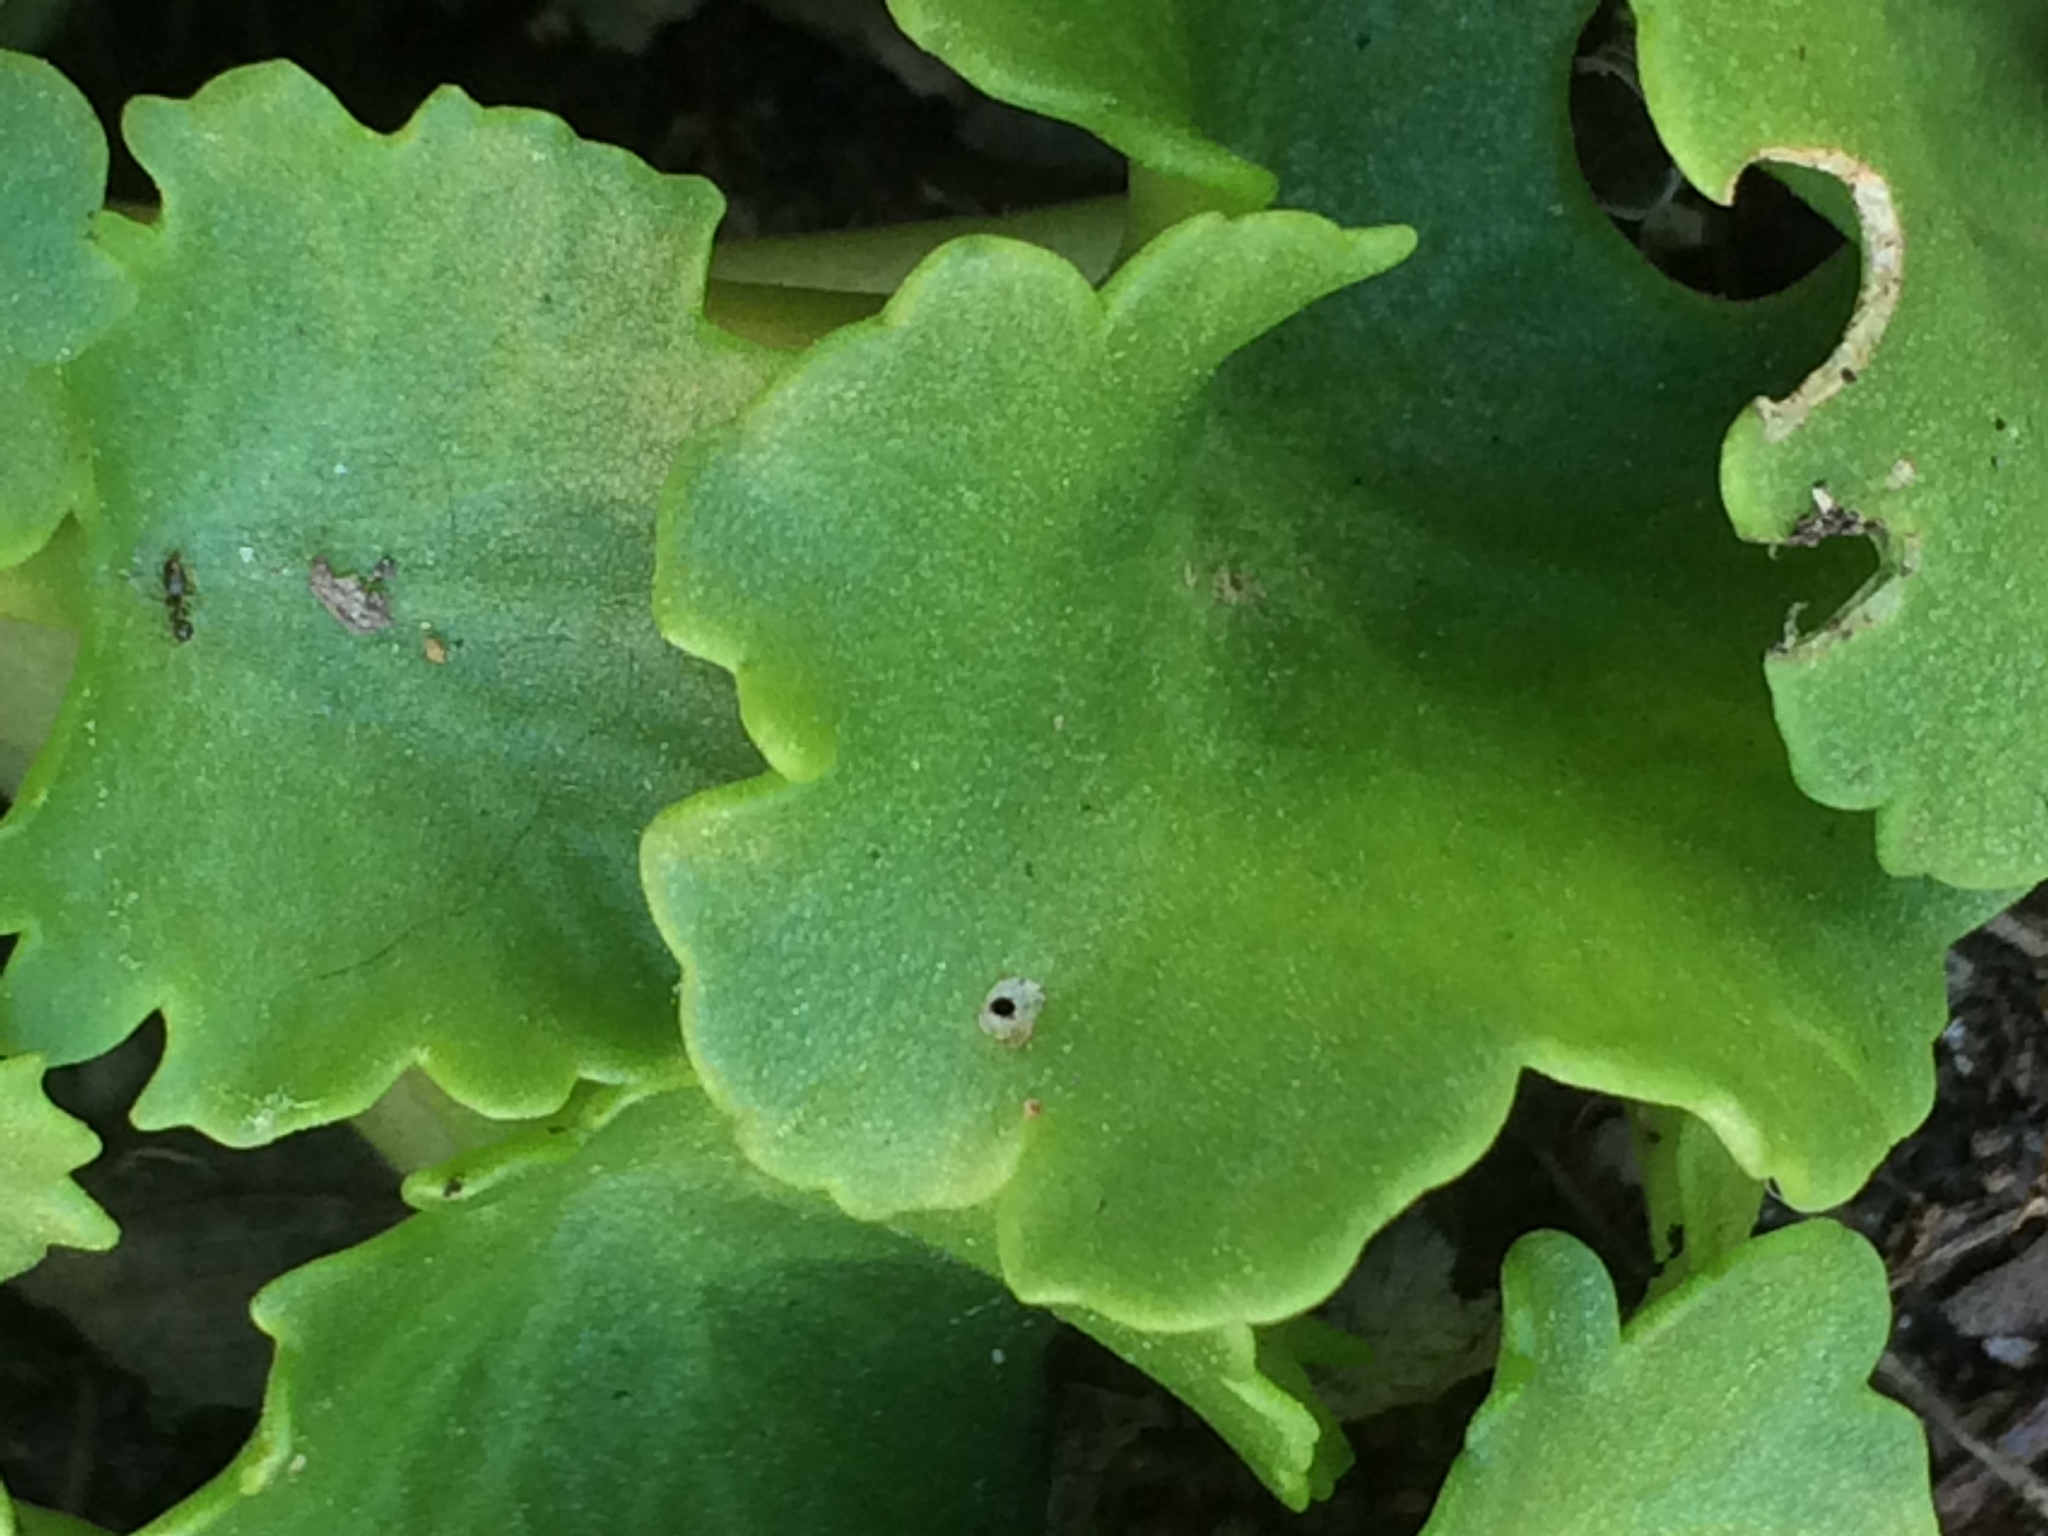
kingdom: Plantae
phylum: Tracheophyta
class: Magnoliopsida
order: Saxifragales
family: Crassulaceae
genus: Umbilicus
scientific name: Umbilicus rupestris
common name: Navelwort
